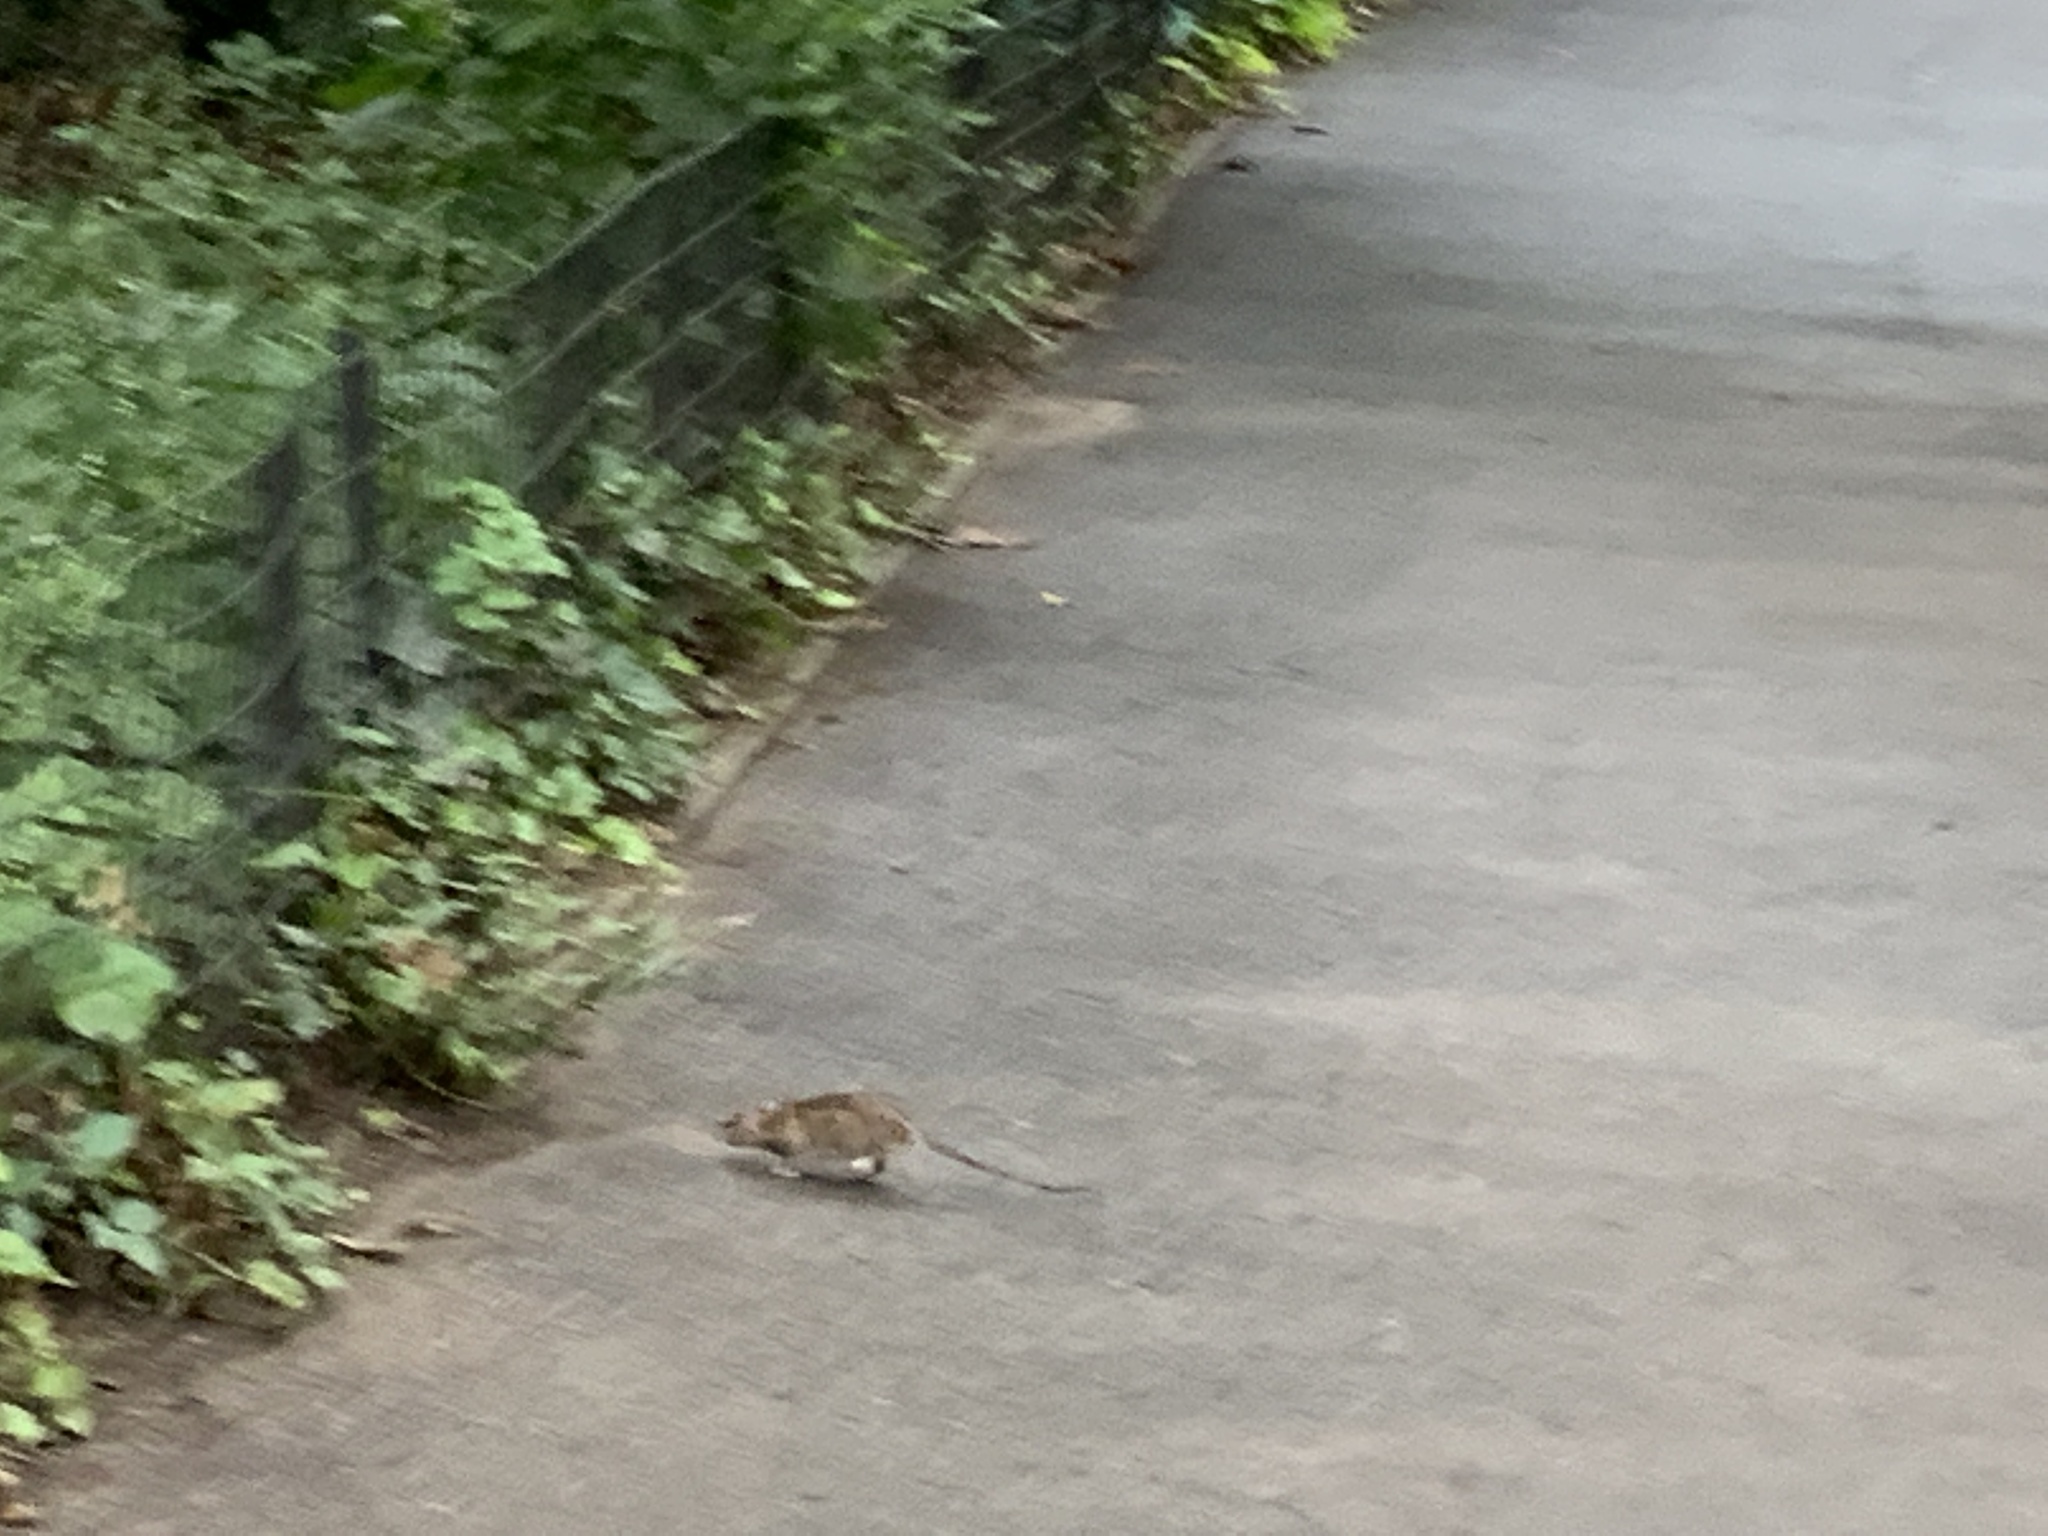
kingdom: Animalia
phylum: Chordata
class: Mammalia
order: Rodentia
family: Muridae
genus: Rattus
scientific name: Rattus norvegicus
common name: Brown rat
